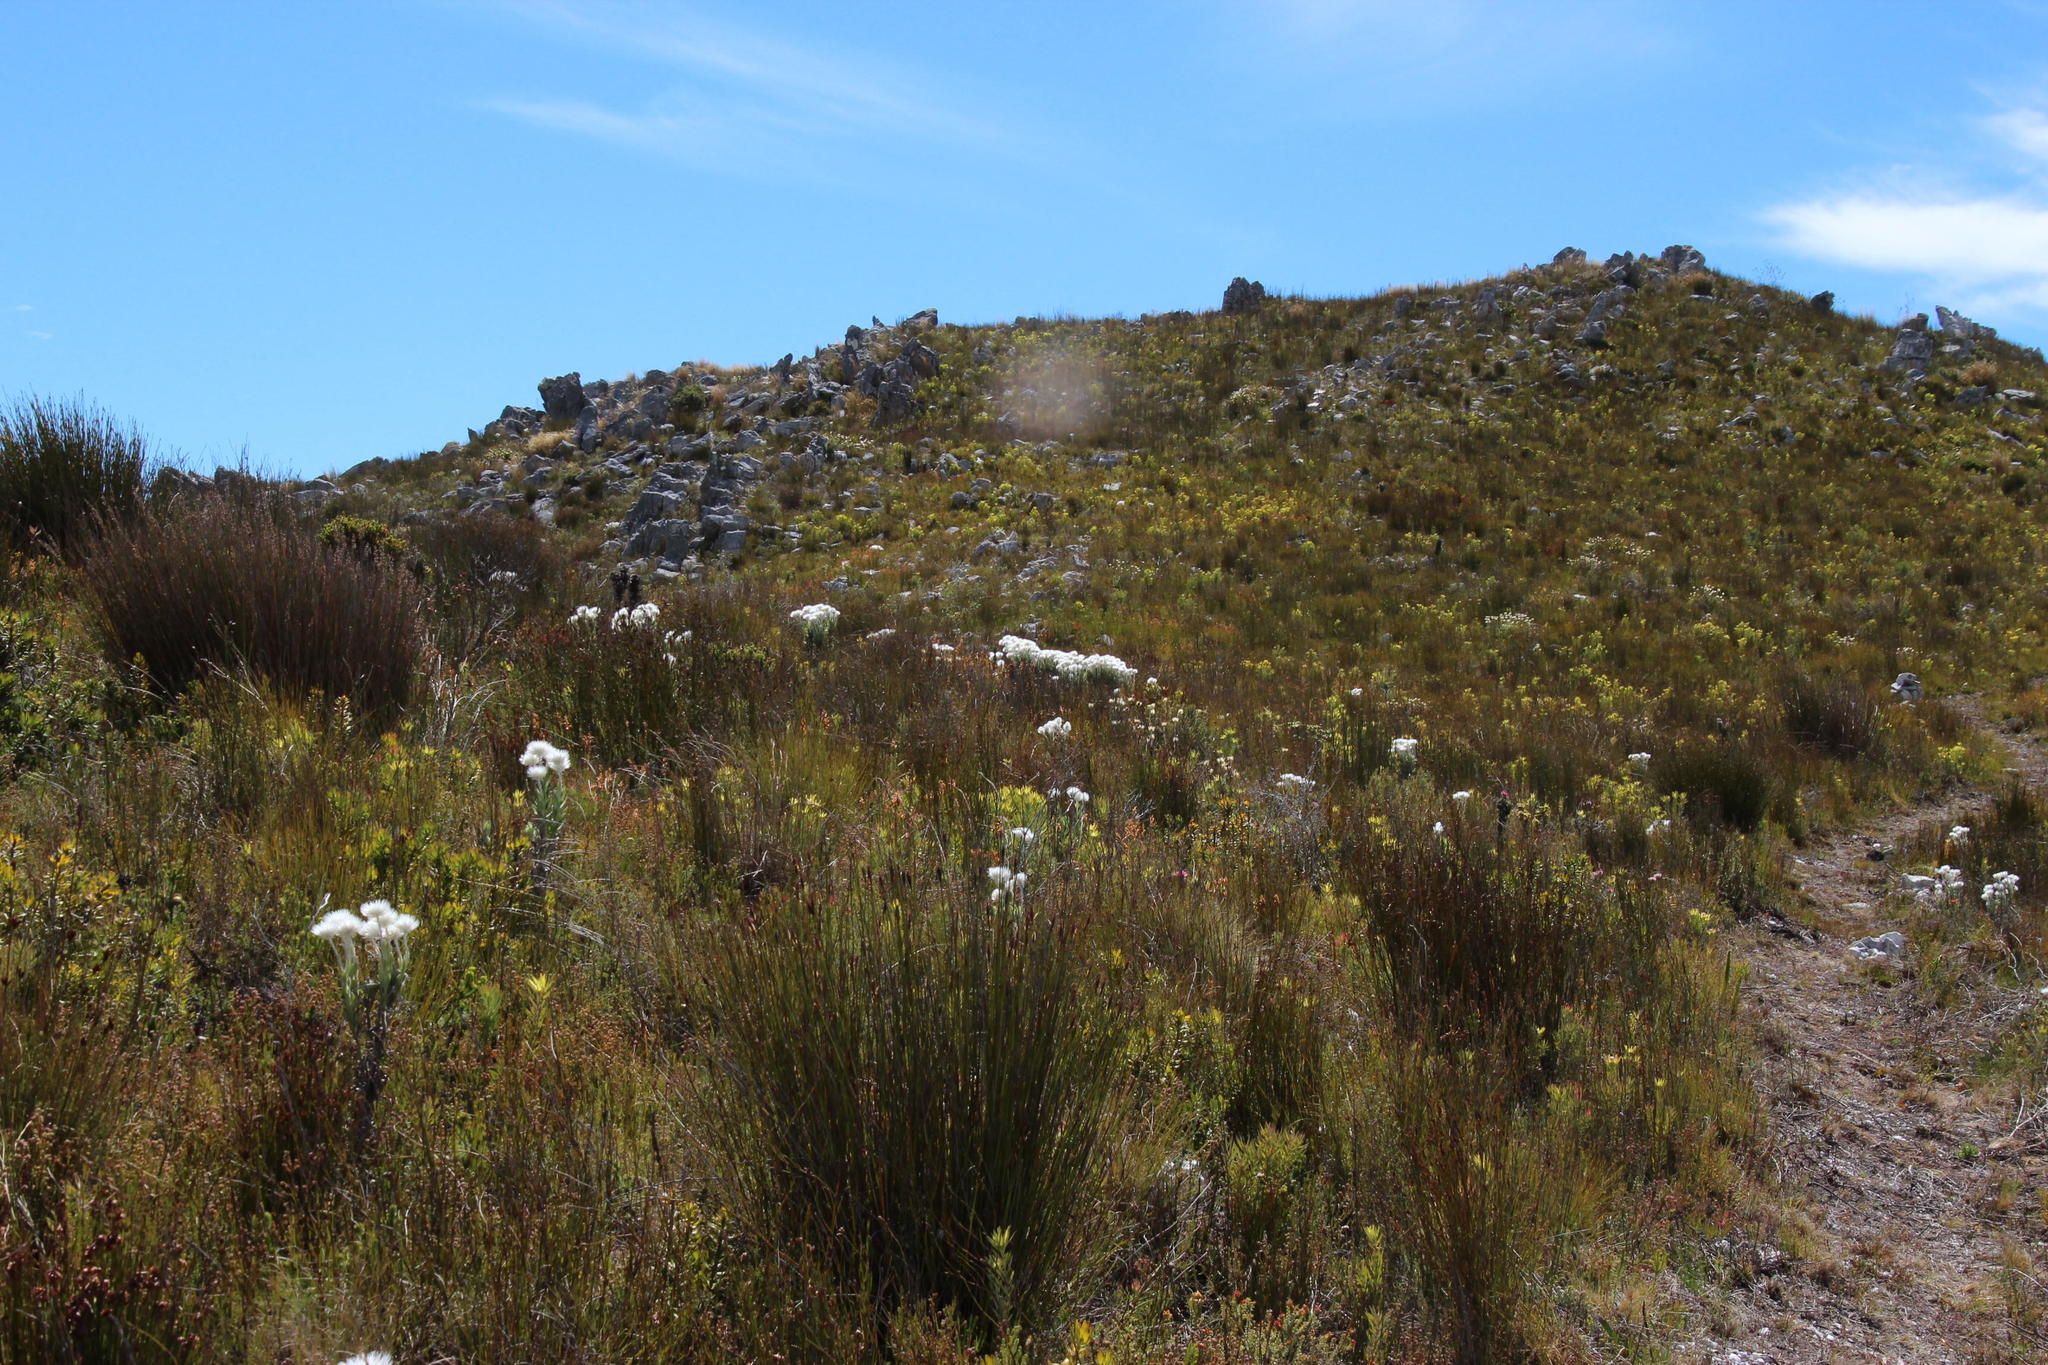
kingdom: Plantae
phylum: Tracheophyta
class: Magnoliopsida
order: Asterales
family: Asteraceae
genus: Syncarpha
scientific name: Syncarpha vestita
